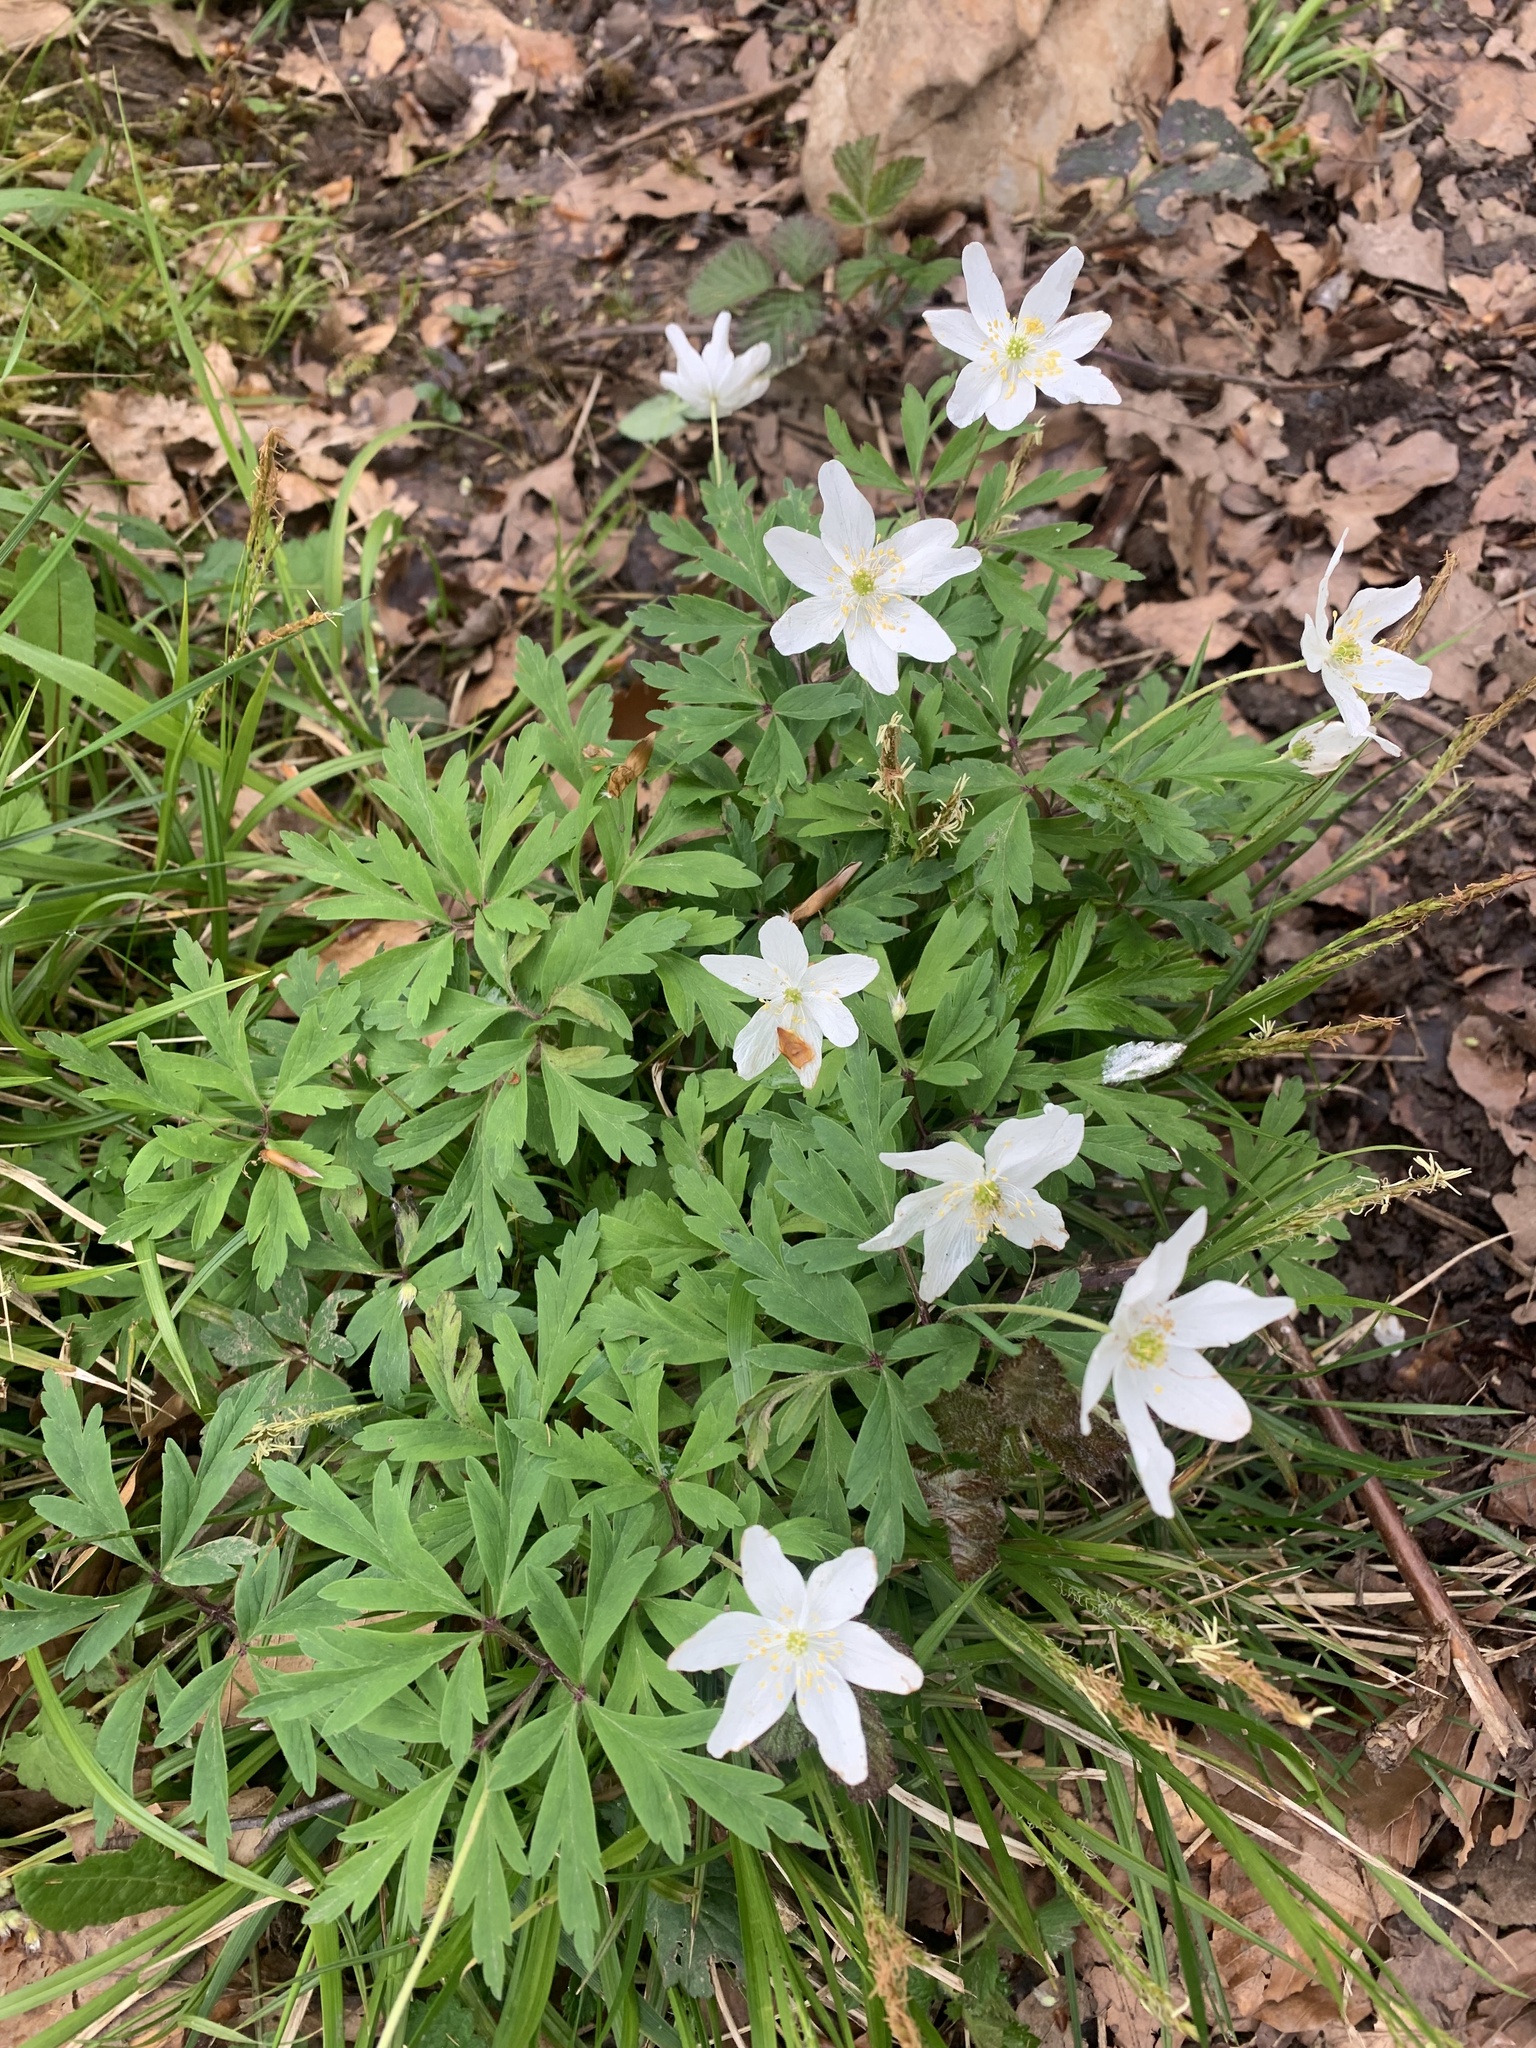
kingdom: Plantae
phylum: Tracheophyta
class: Magnoliopsida
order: Ranunculales
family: Ranunculaceae
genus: Anemone
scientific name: Anemone nemorosa
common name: Wood anemone
